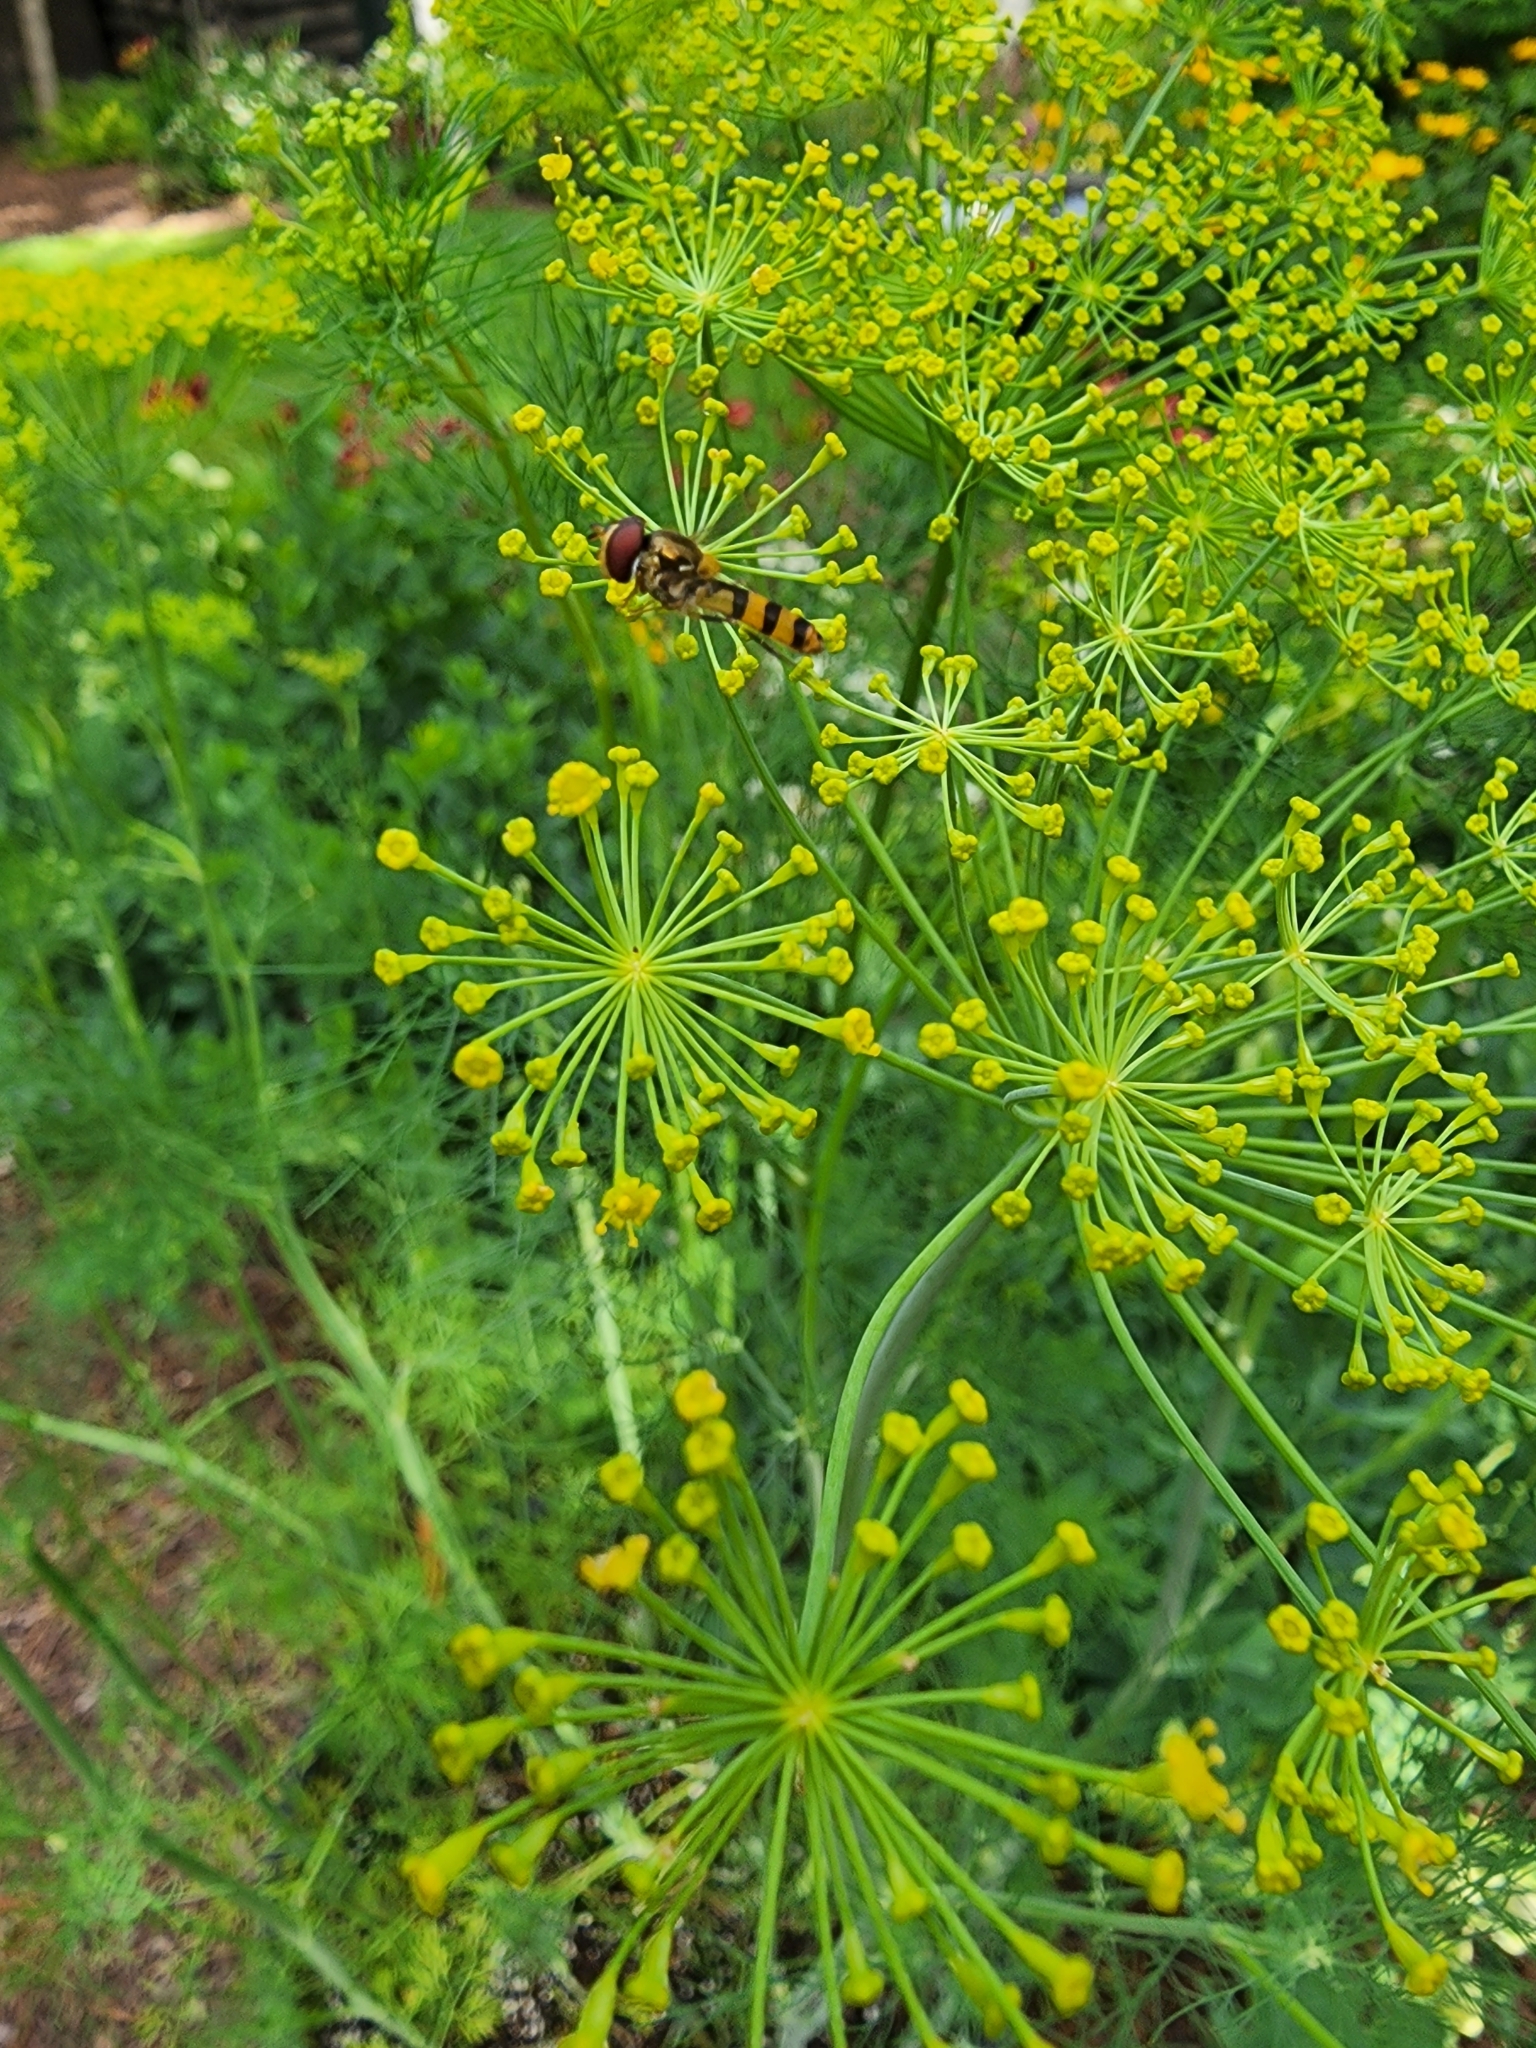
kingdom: Animalia
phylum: Arthropoda
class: Insecta
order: Diptera
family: Syrphidae
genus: Meliscaeva
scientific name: Meliscaeva cinctella
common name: American thintail fly
